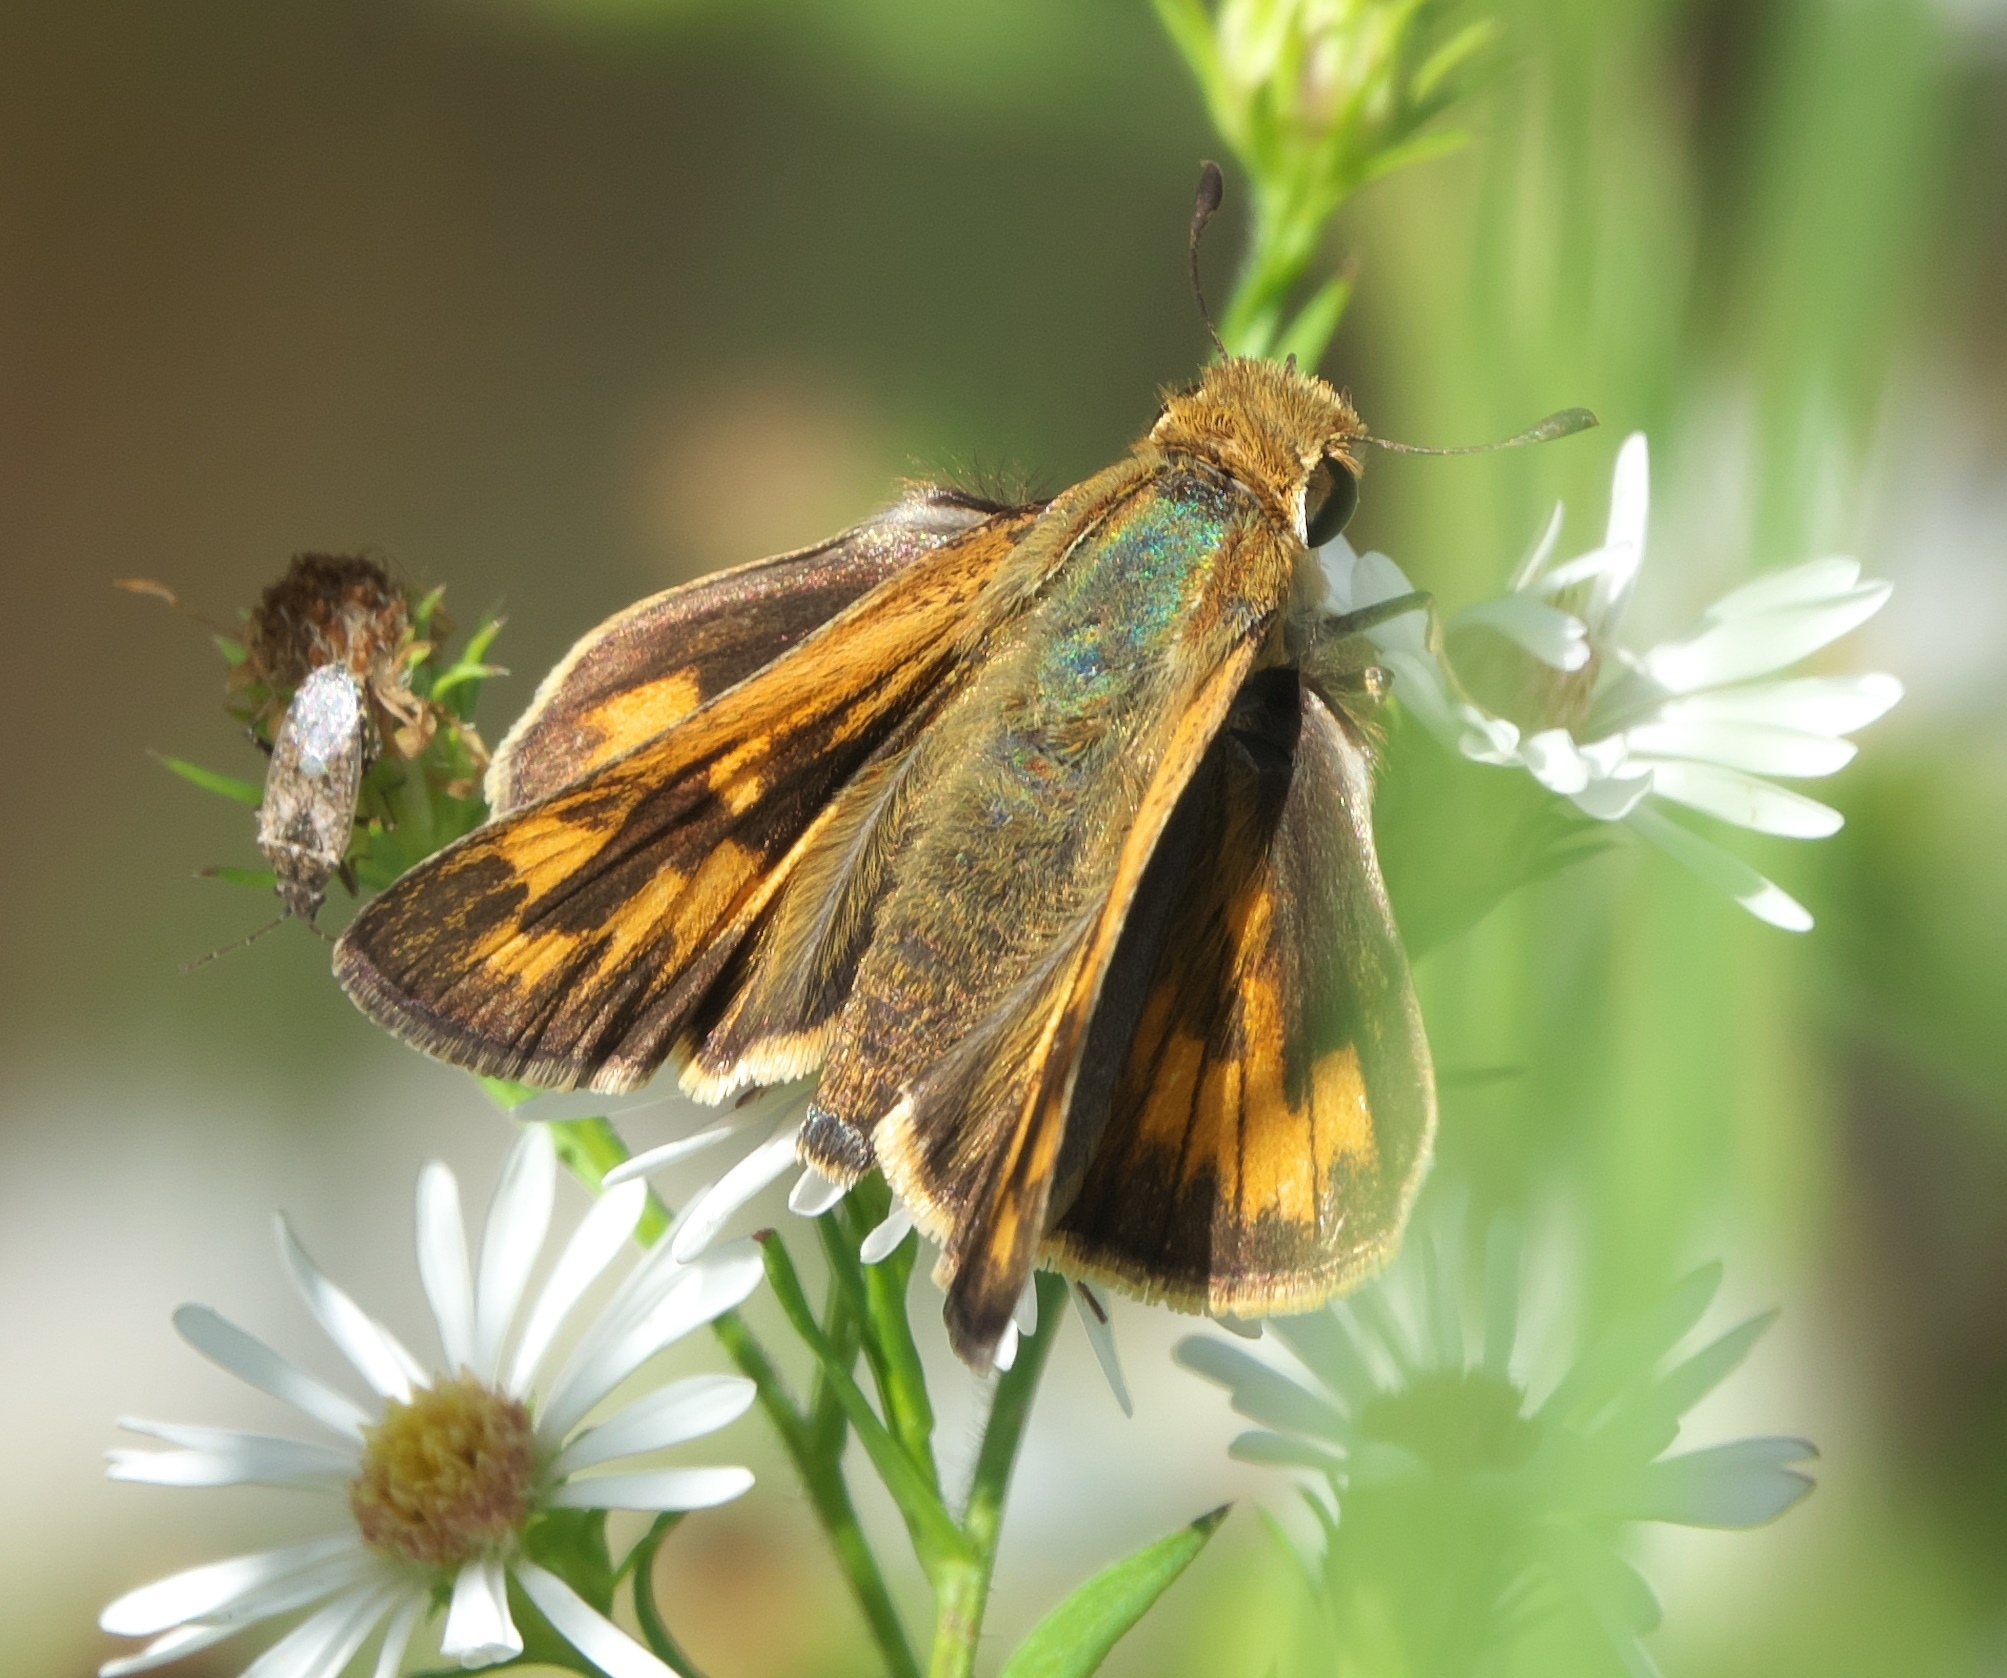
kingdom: Animalia
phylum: Arthropoda
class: Insecta
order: Lepidoptera
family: Hesperiidae
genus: Hylephila
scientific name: Hylephila phyleus
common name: Fiery skipper
